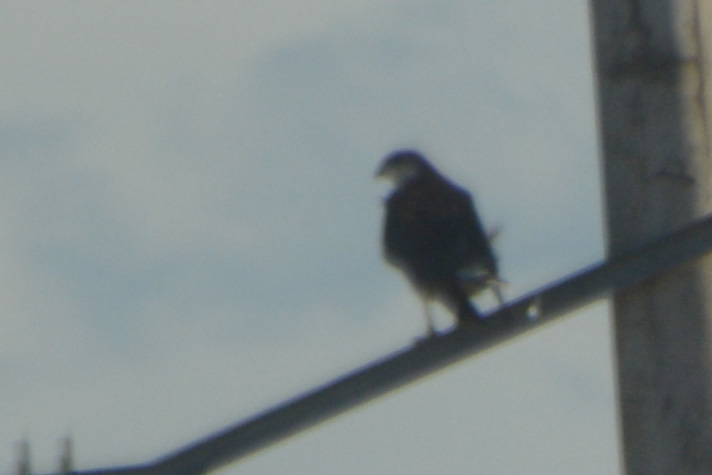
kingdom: Animalia
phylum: Chordata
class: Aves
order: Accipitriformes
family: Accipitridae
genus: Buteo
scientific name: Buteo polyosoma
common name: Variable hawk
